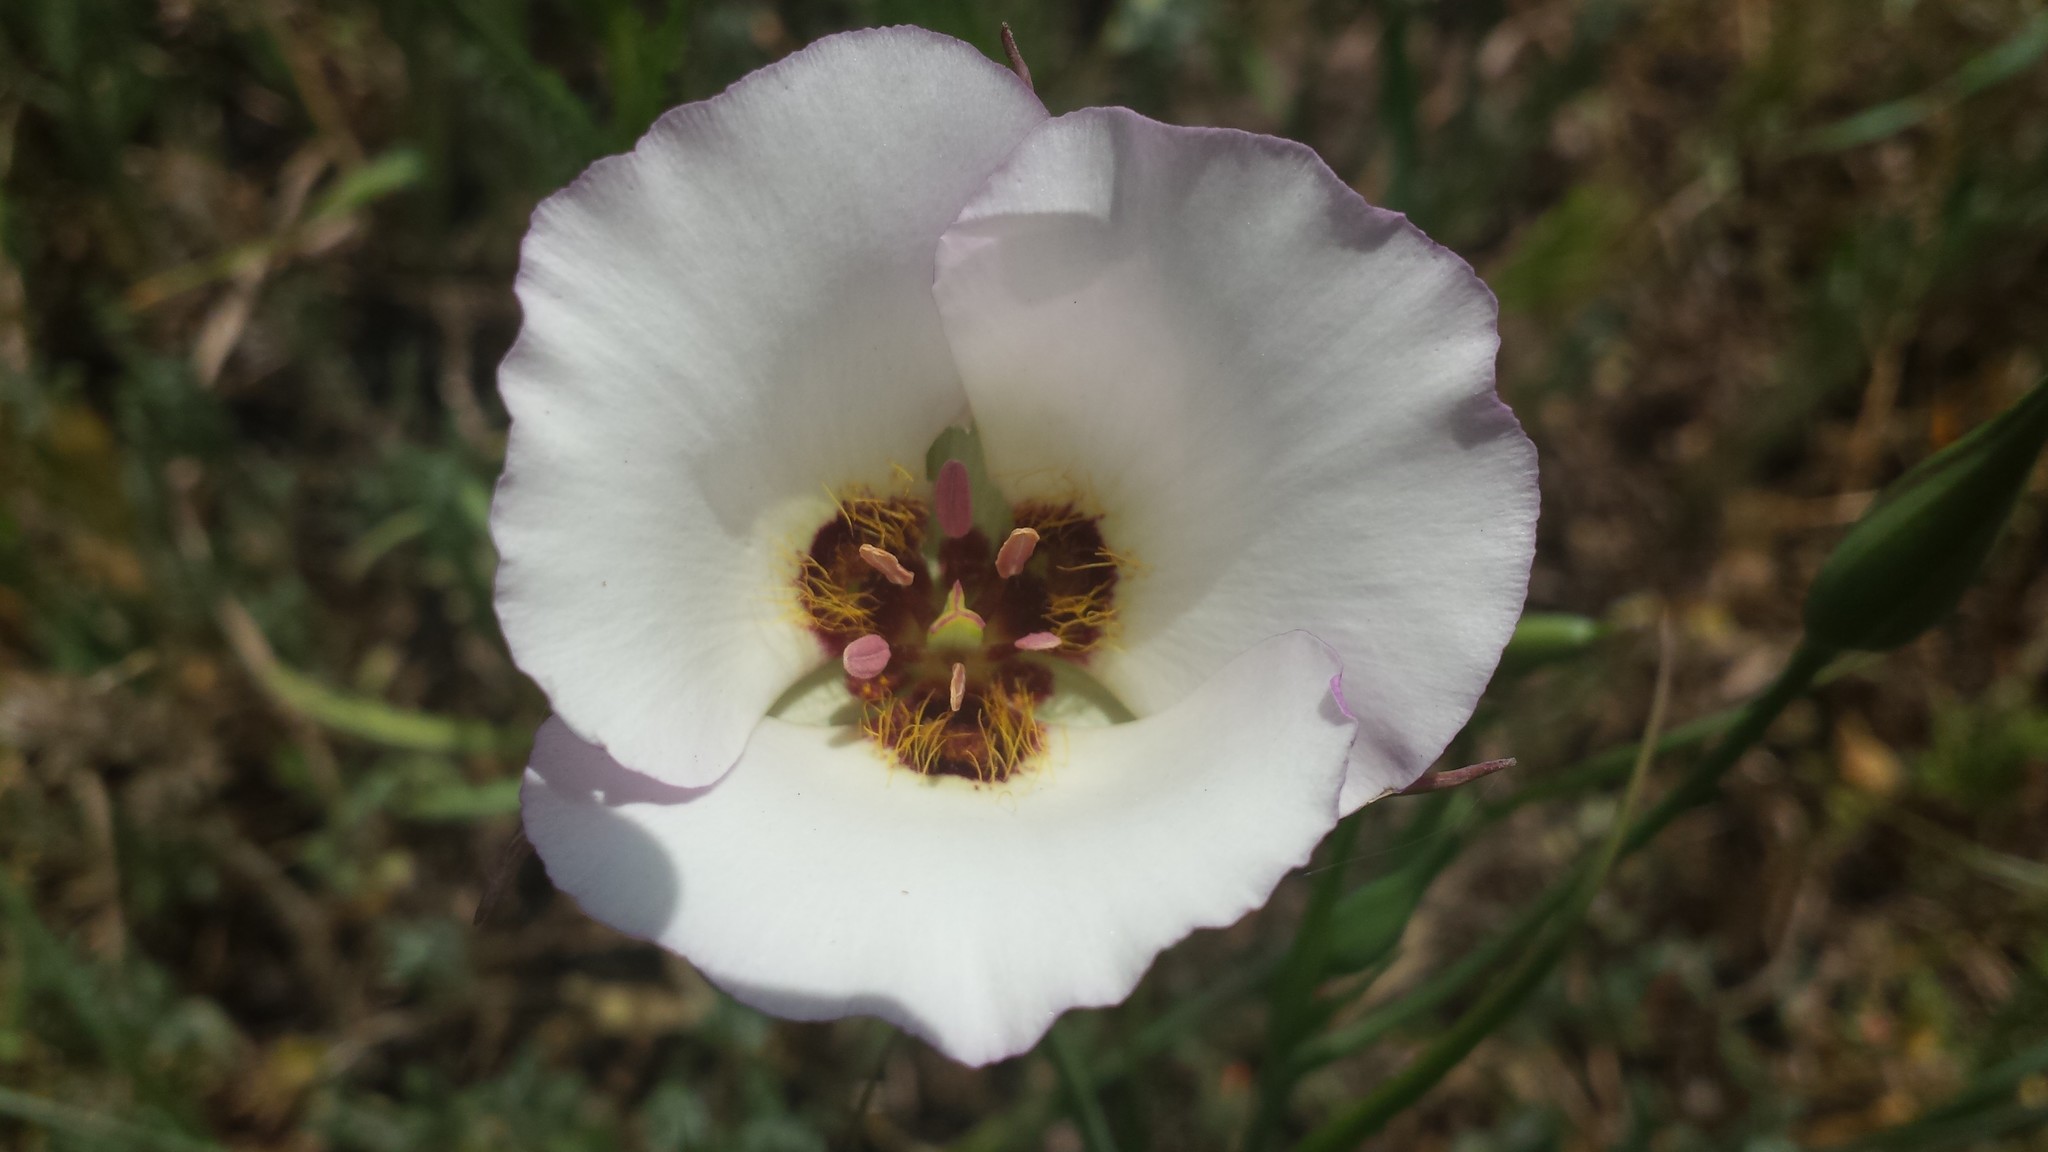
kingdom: Plantae
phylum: Tracheophyta
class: Liliopsida
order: Liliales
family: Liliaceae
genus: Calochortus
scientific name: Calochortus catalinae
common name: Catalina mariposa-lily
